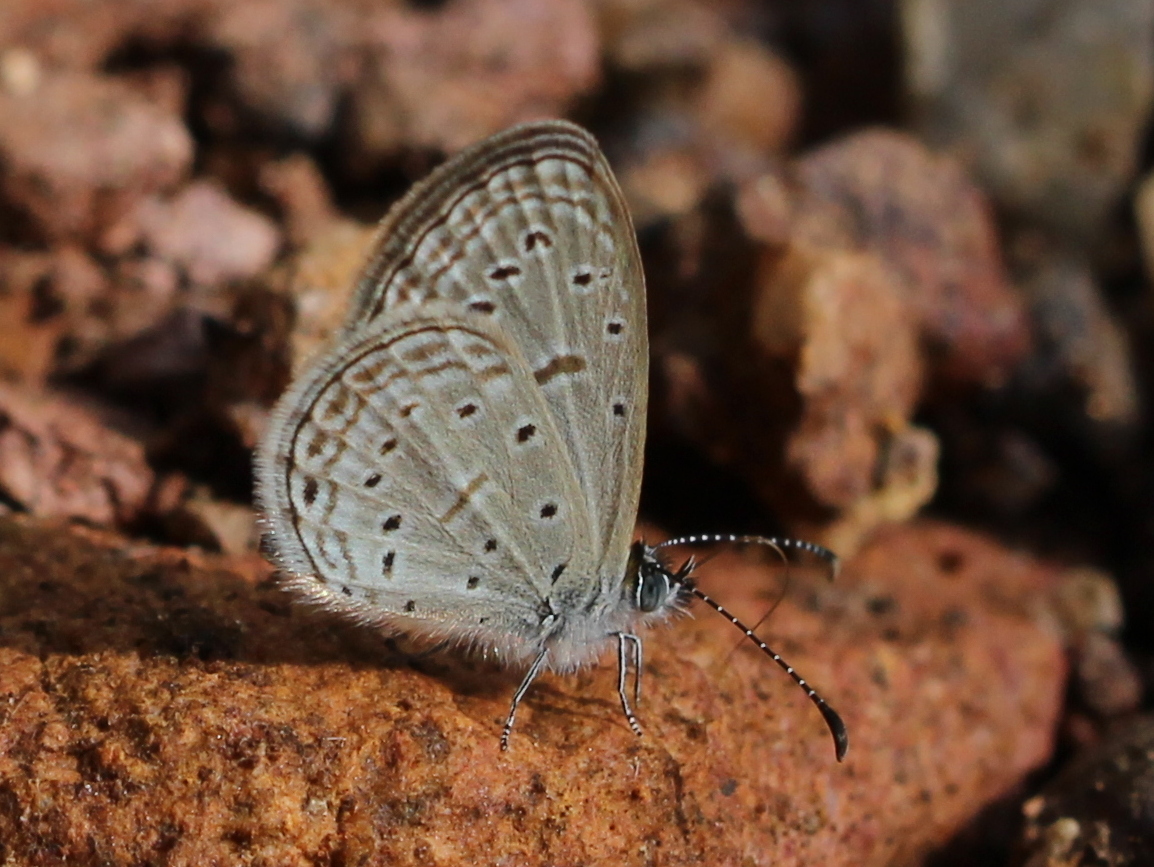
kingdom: Animalia
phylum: Arthropoda
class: Insecta
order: Lepidoptera
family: Lycaenidae
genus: Zizula
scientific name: Zizula hylax
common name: Gaika blue
